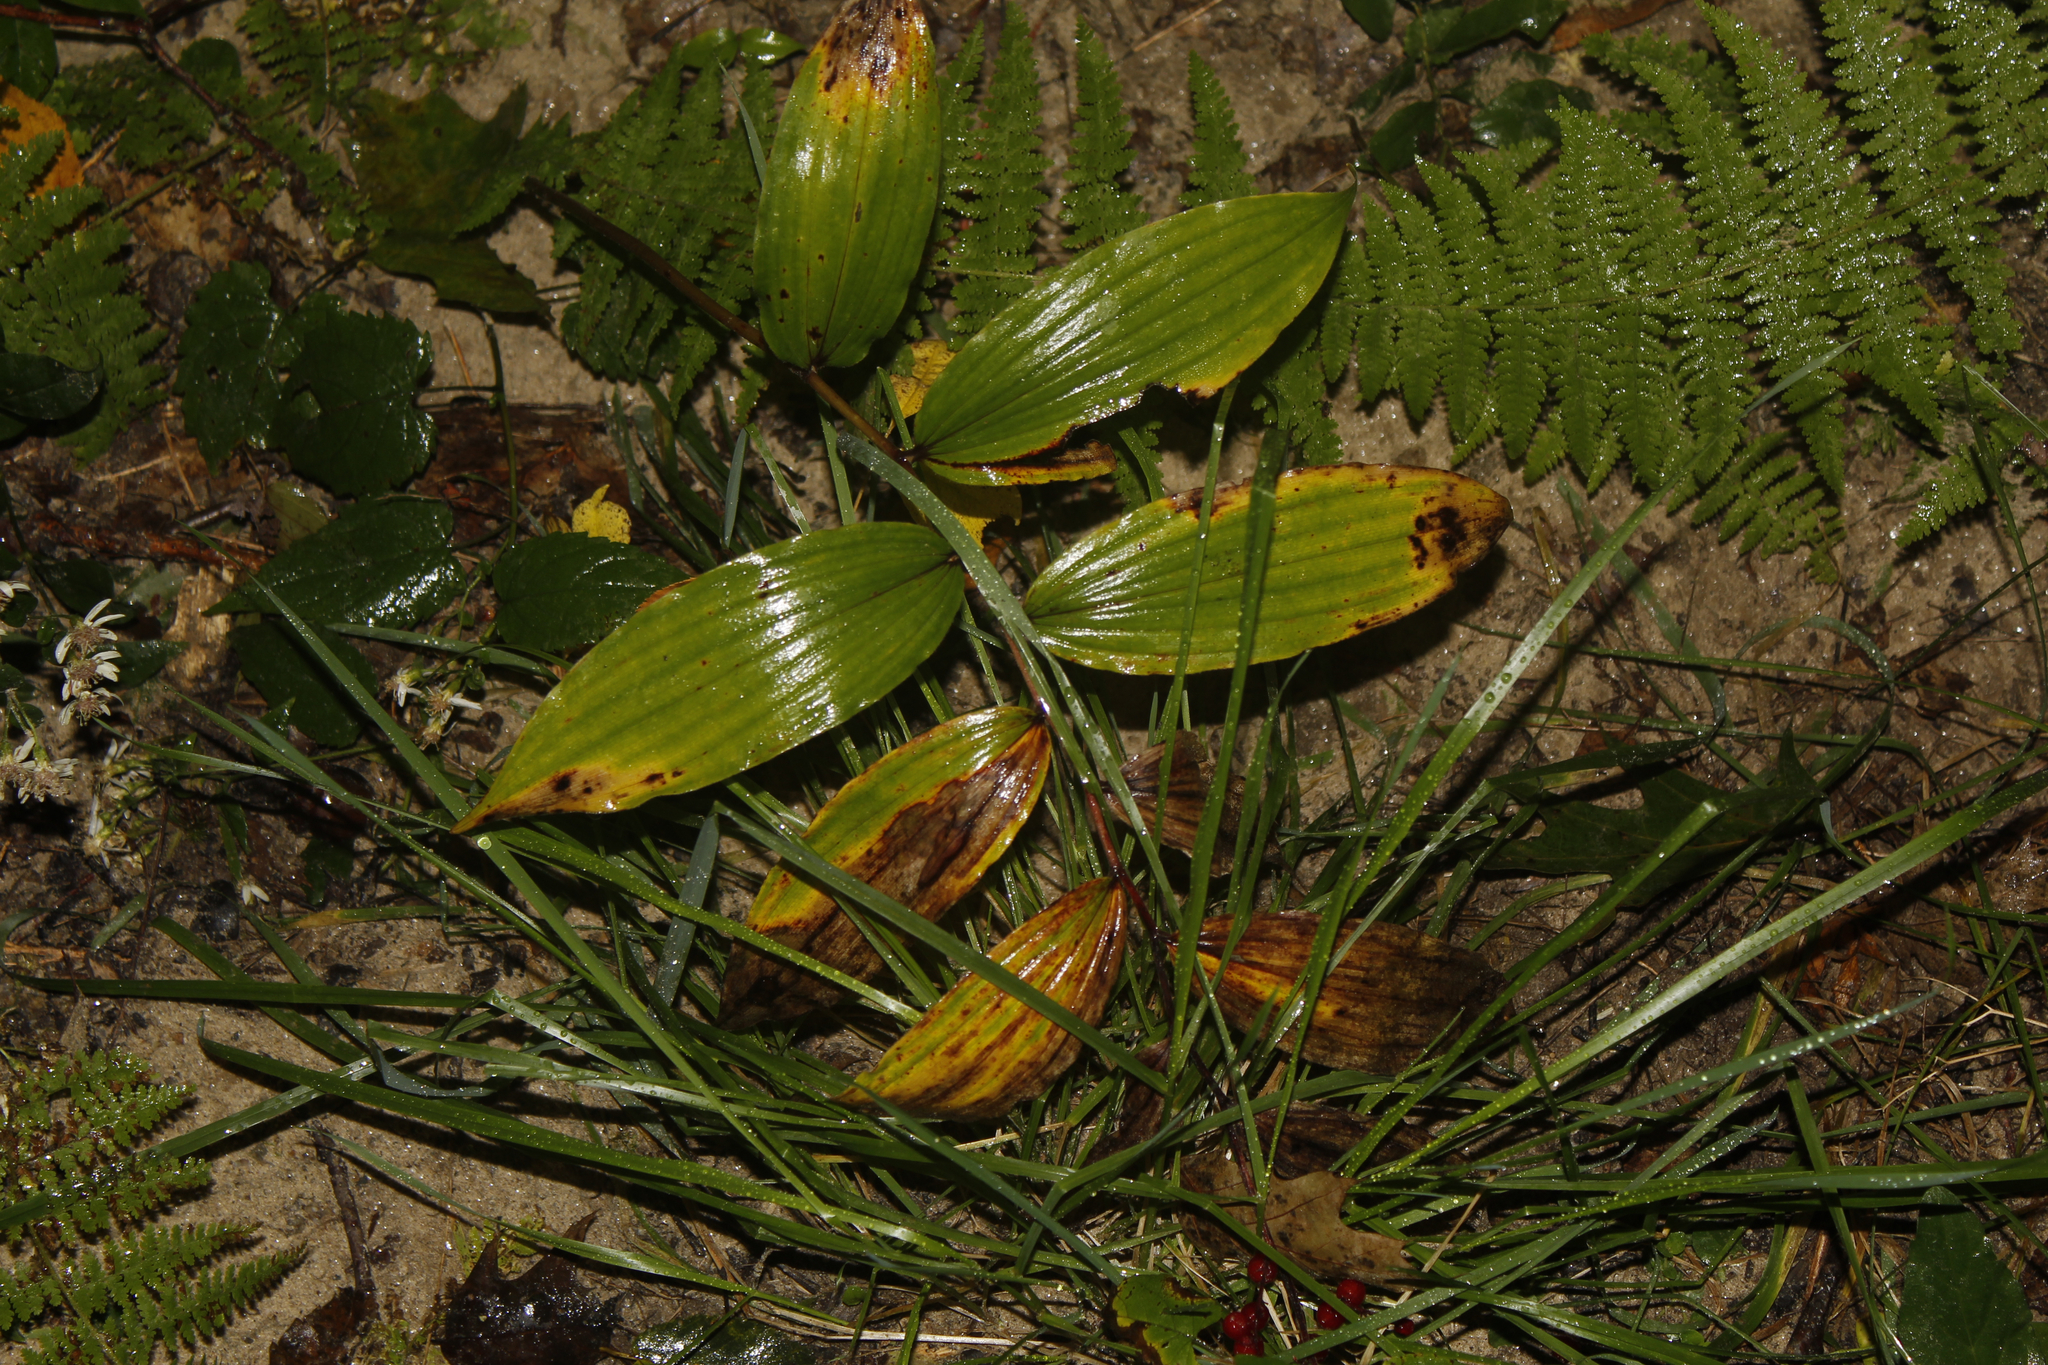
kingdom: Plantae
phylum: Tracheophyta
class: Liliopsida
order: Asparagales
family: Asparagaceae
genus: Maianthemum
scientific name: Maianthemum racemosum
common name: False spikenard
